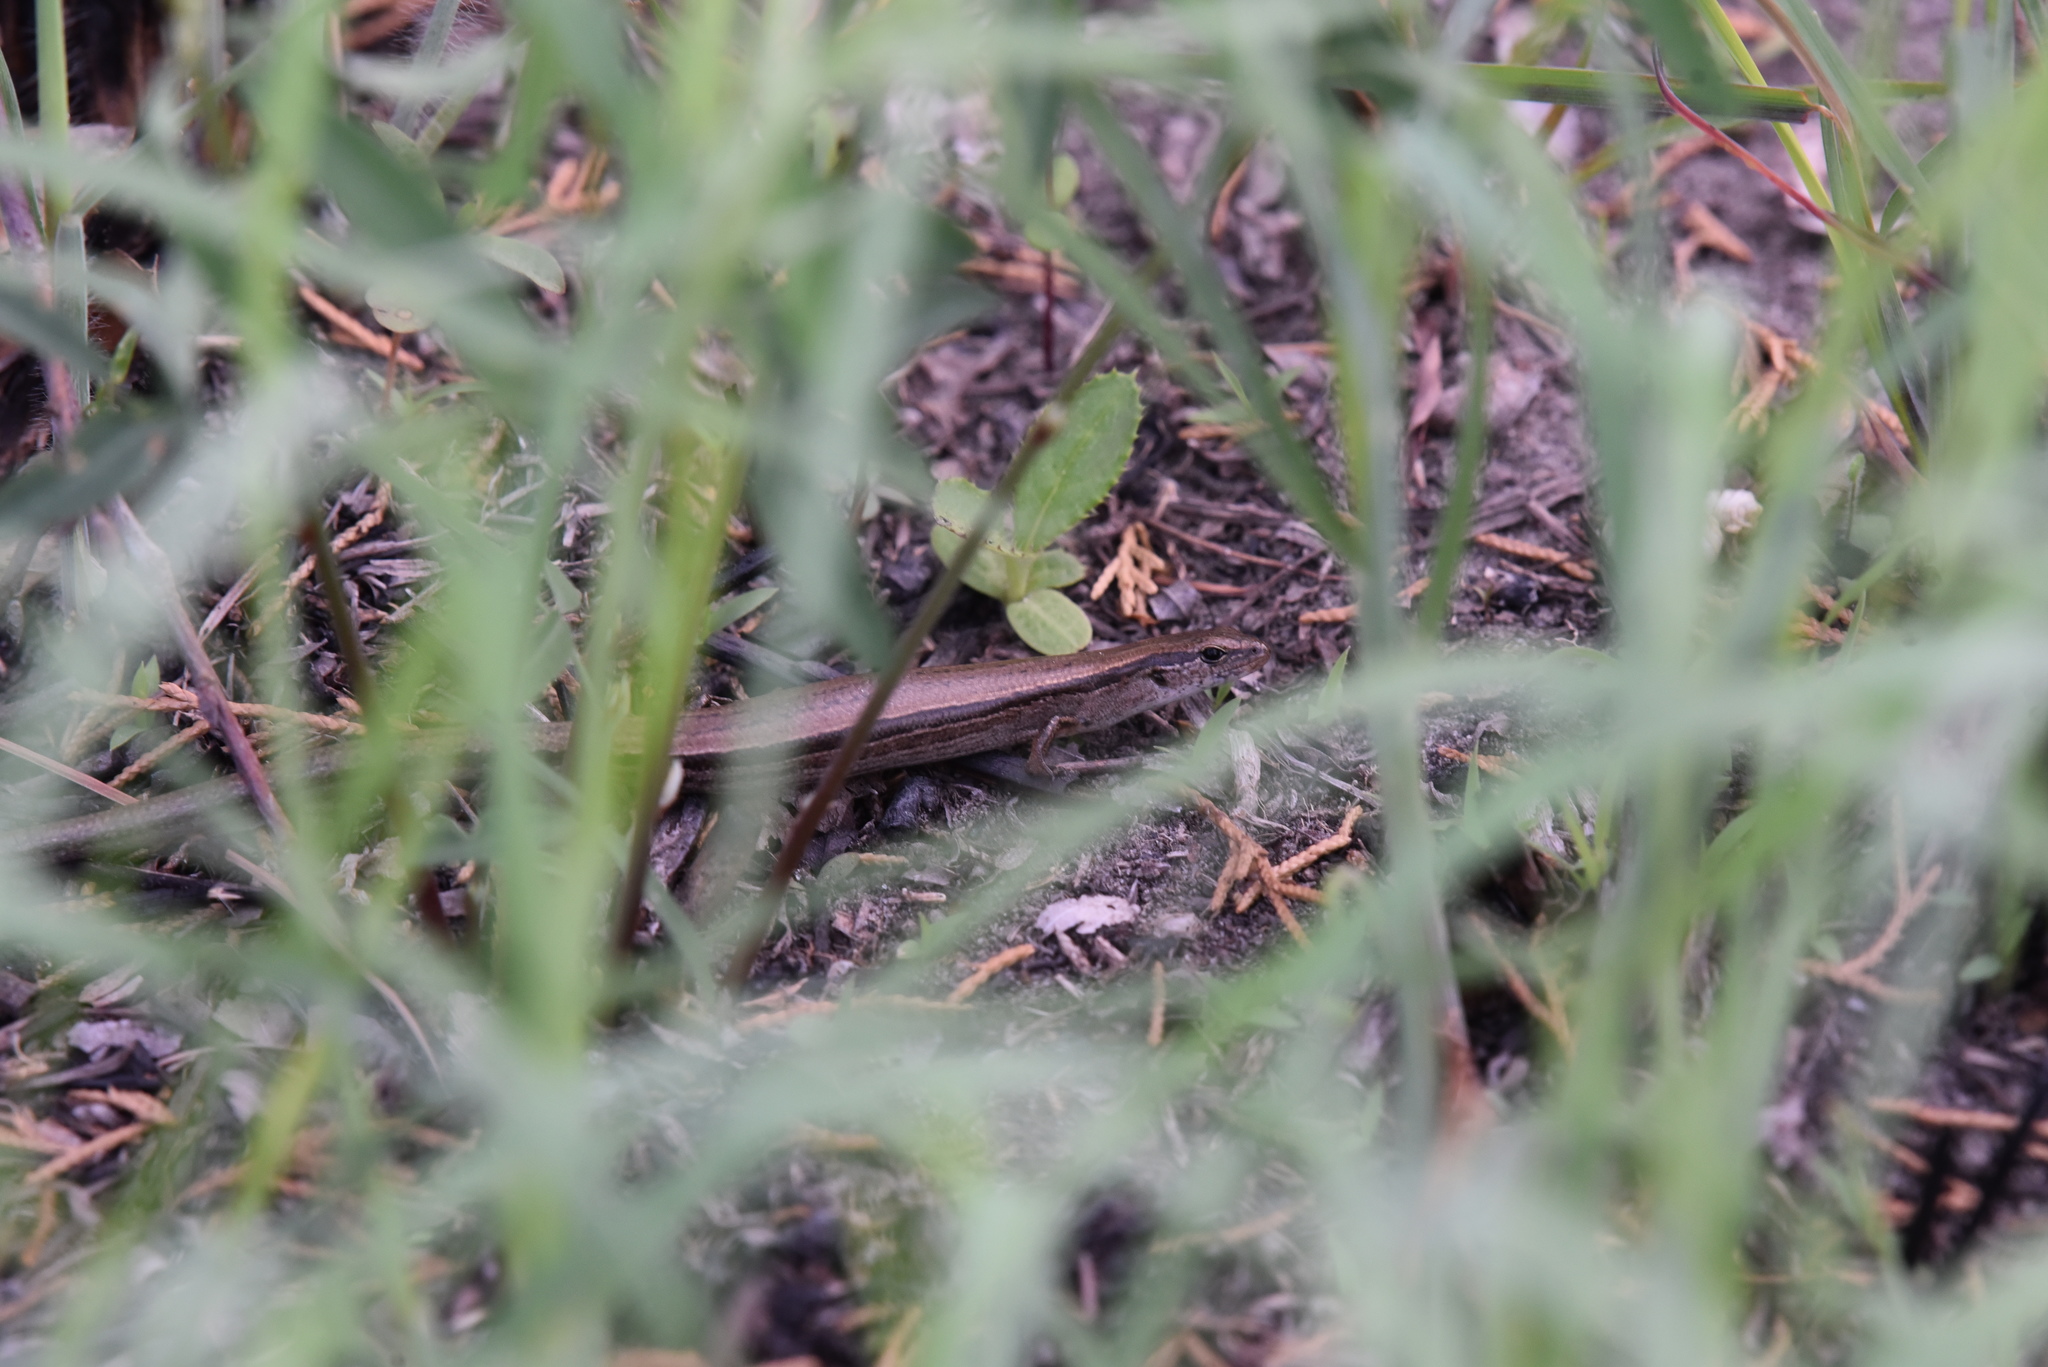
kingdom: Animalia
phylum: Chordata
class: Squamata
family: Scincidae
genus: Scincella
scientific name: Scincella lateralis
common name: Ground skink
